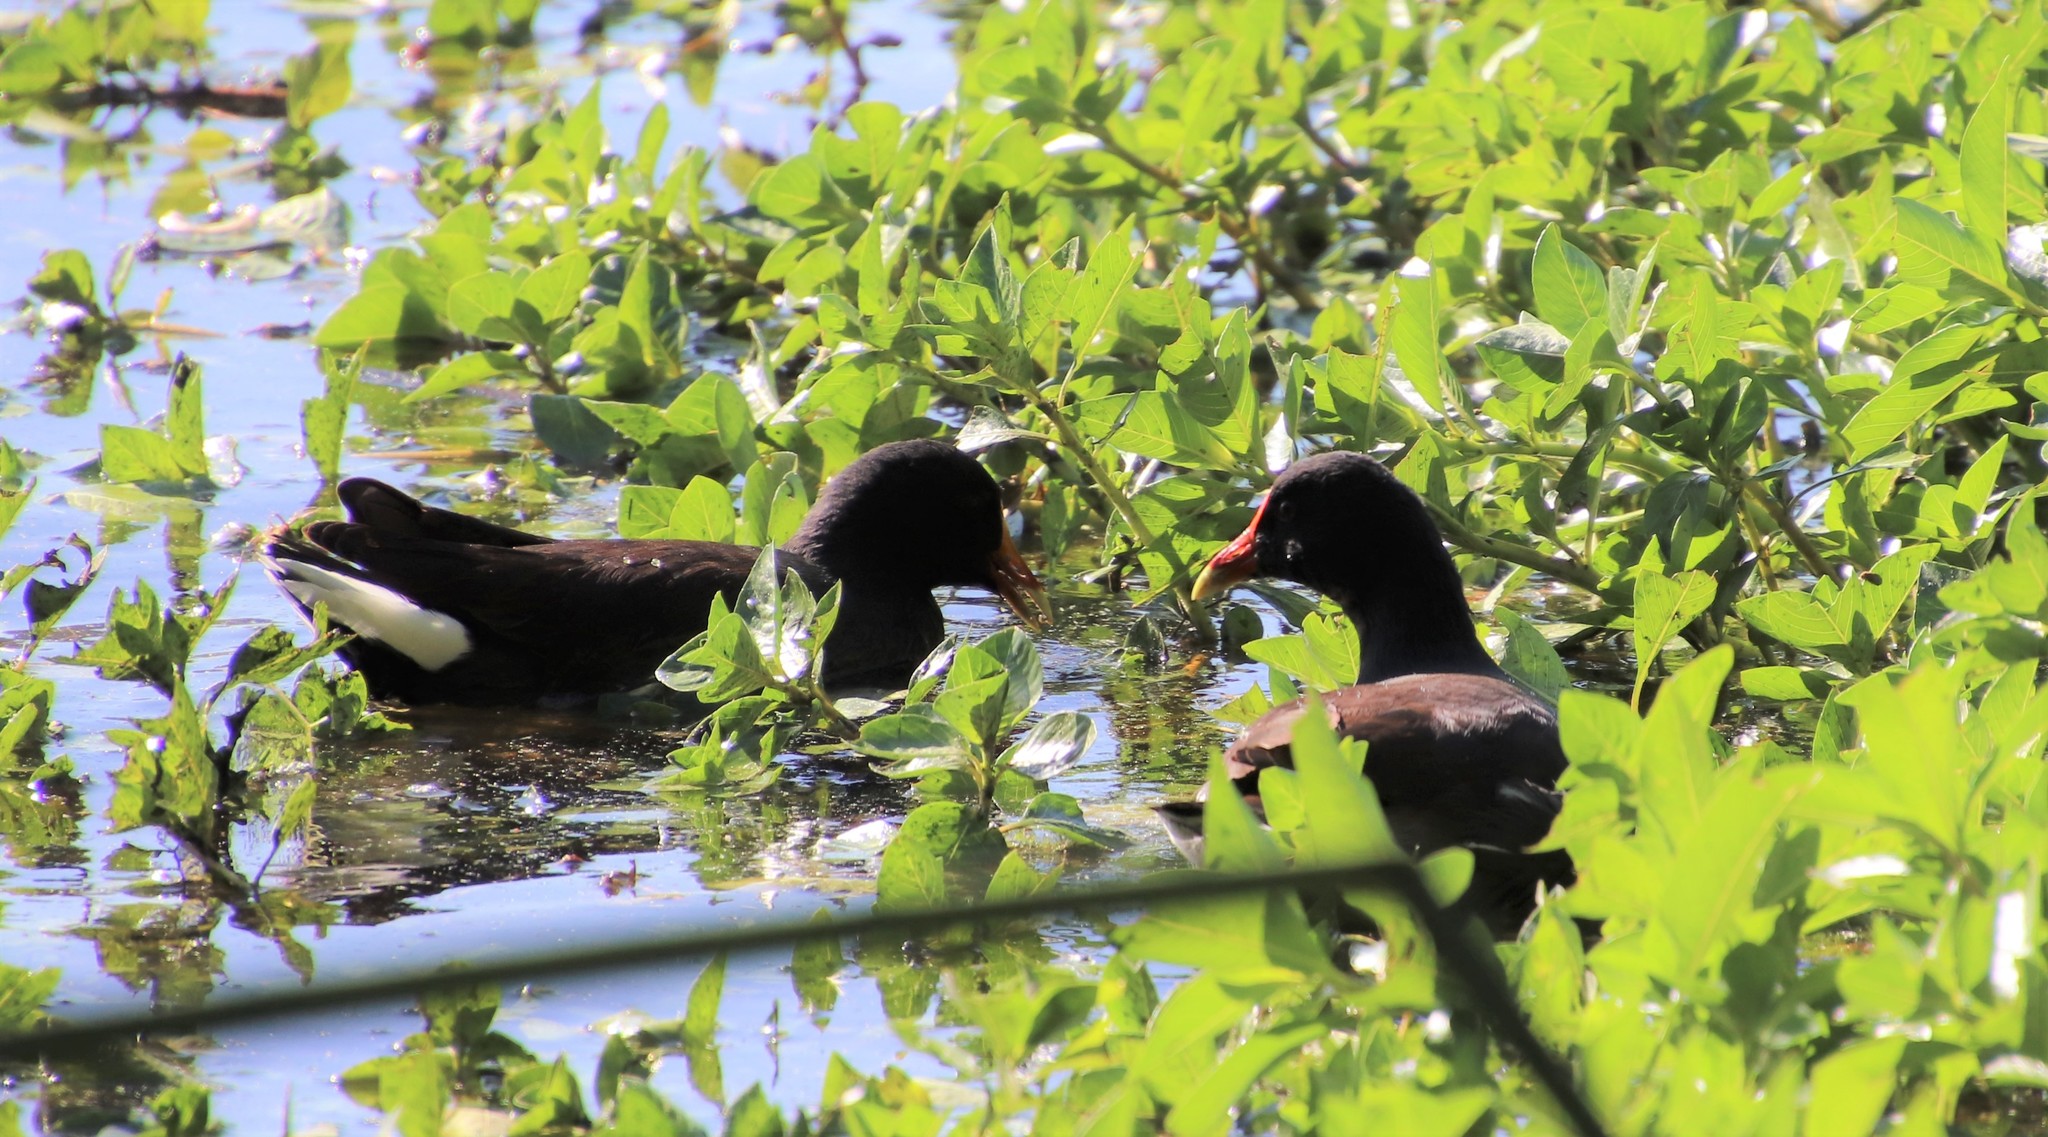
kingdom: Animalia
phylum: Chordata
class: Aves
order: Gruiformes
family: Rallidae
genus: Gallinula
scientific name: Gallinula chloropus
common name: Common moorhen
